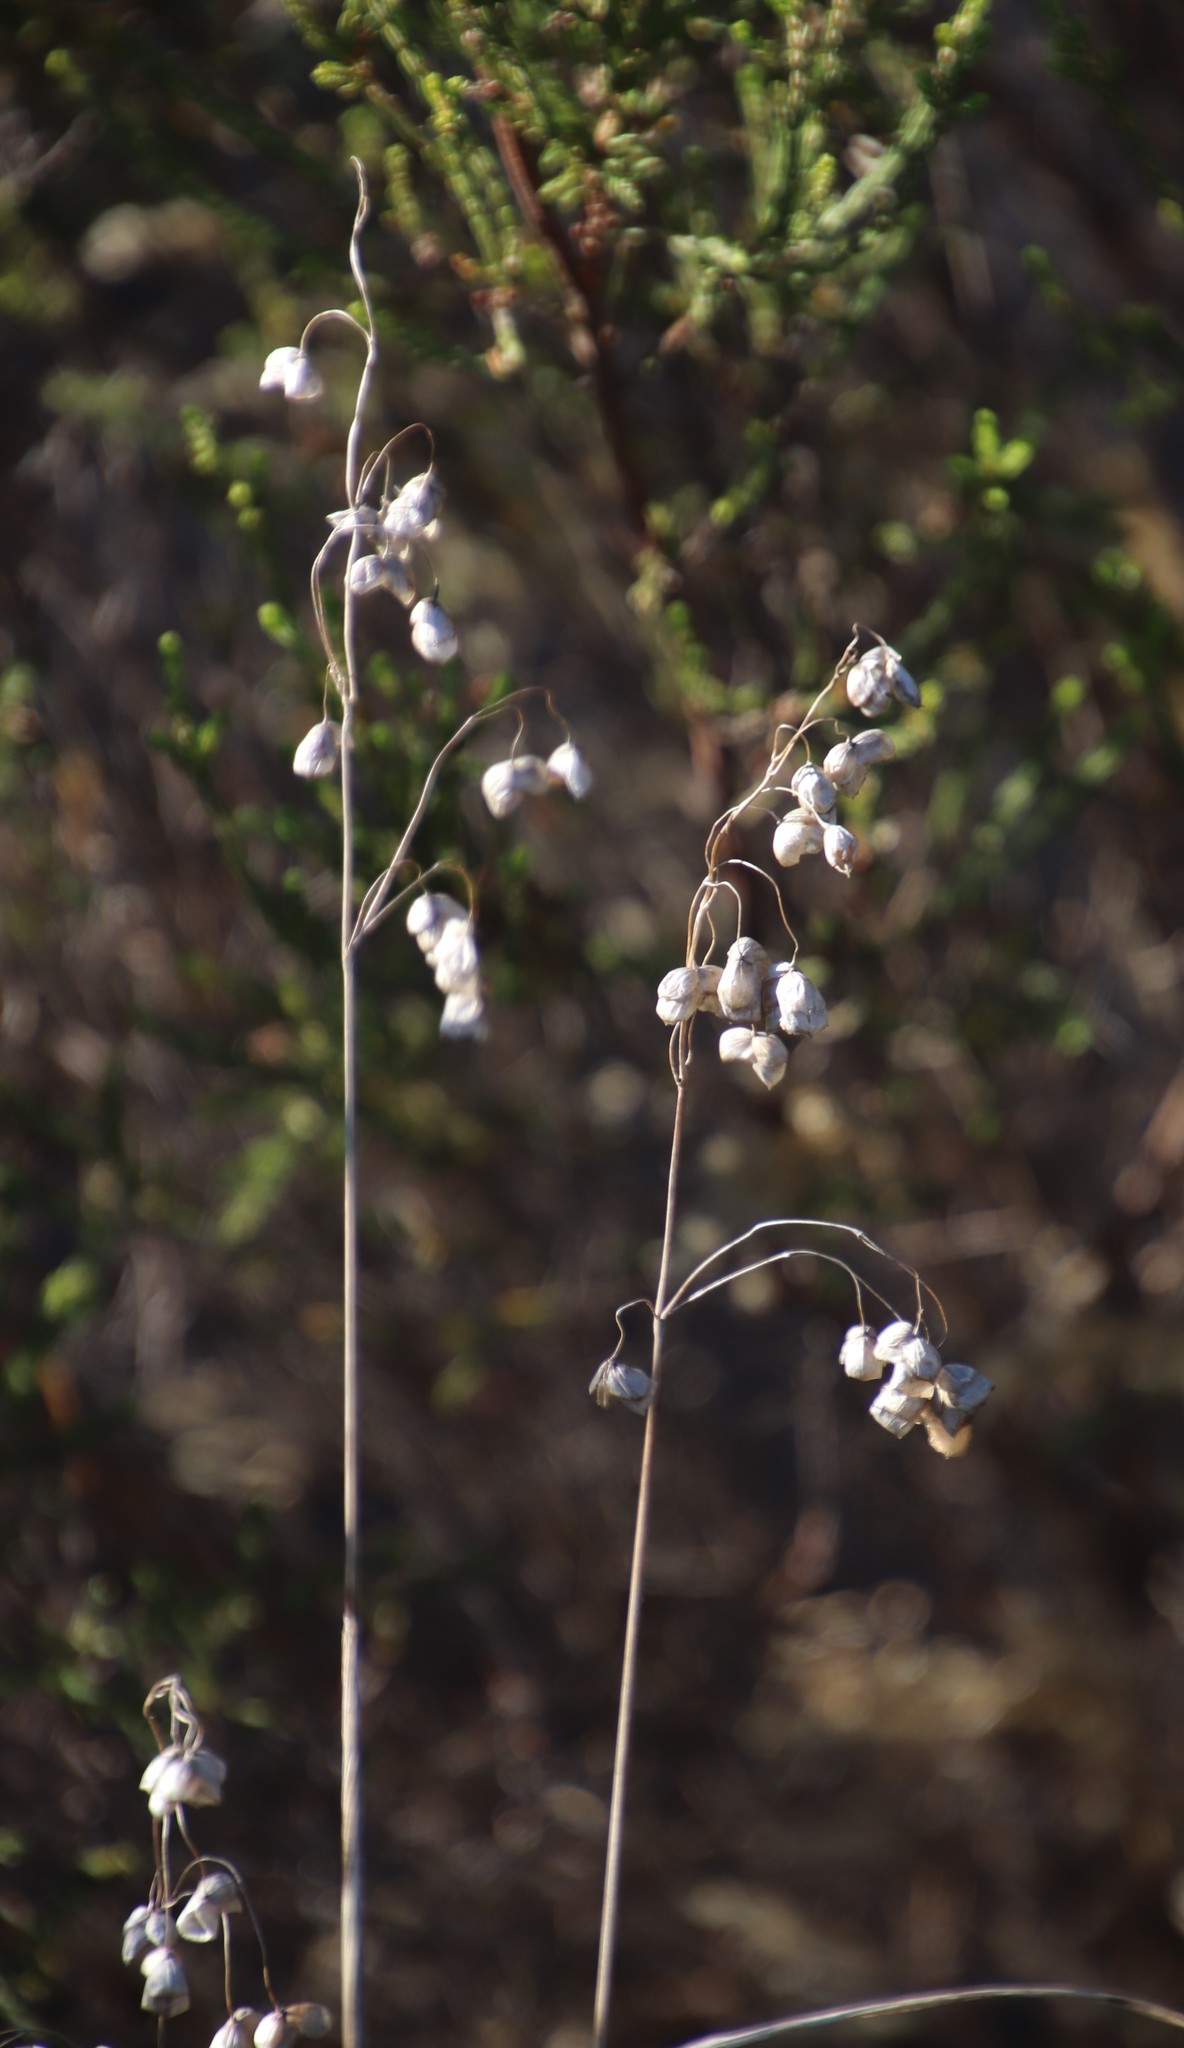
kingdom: Plantae
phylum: Tracheophyta
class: Liliopsida
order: Poales
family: Poaceae
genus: Briza
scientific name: Briza maxima
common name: Big quakinggrass
